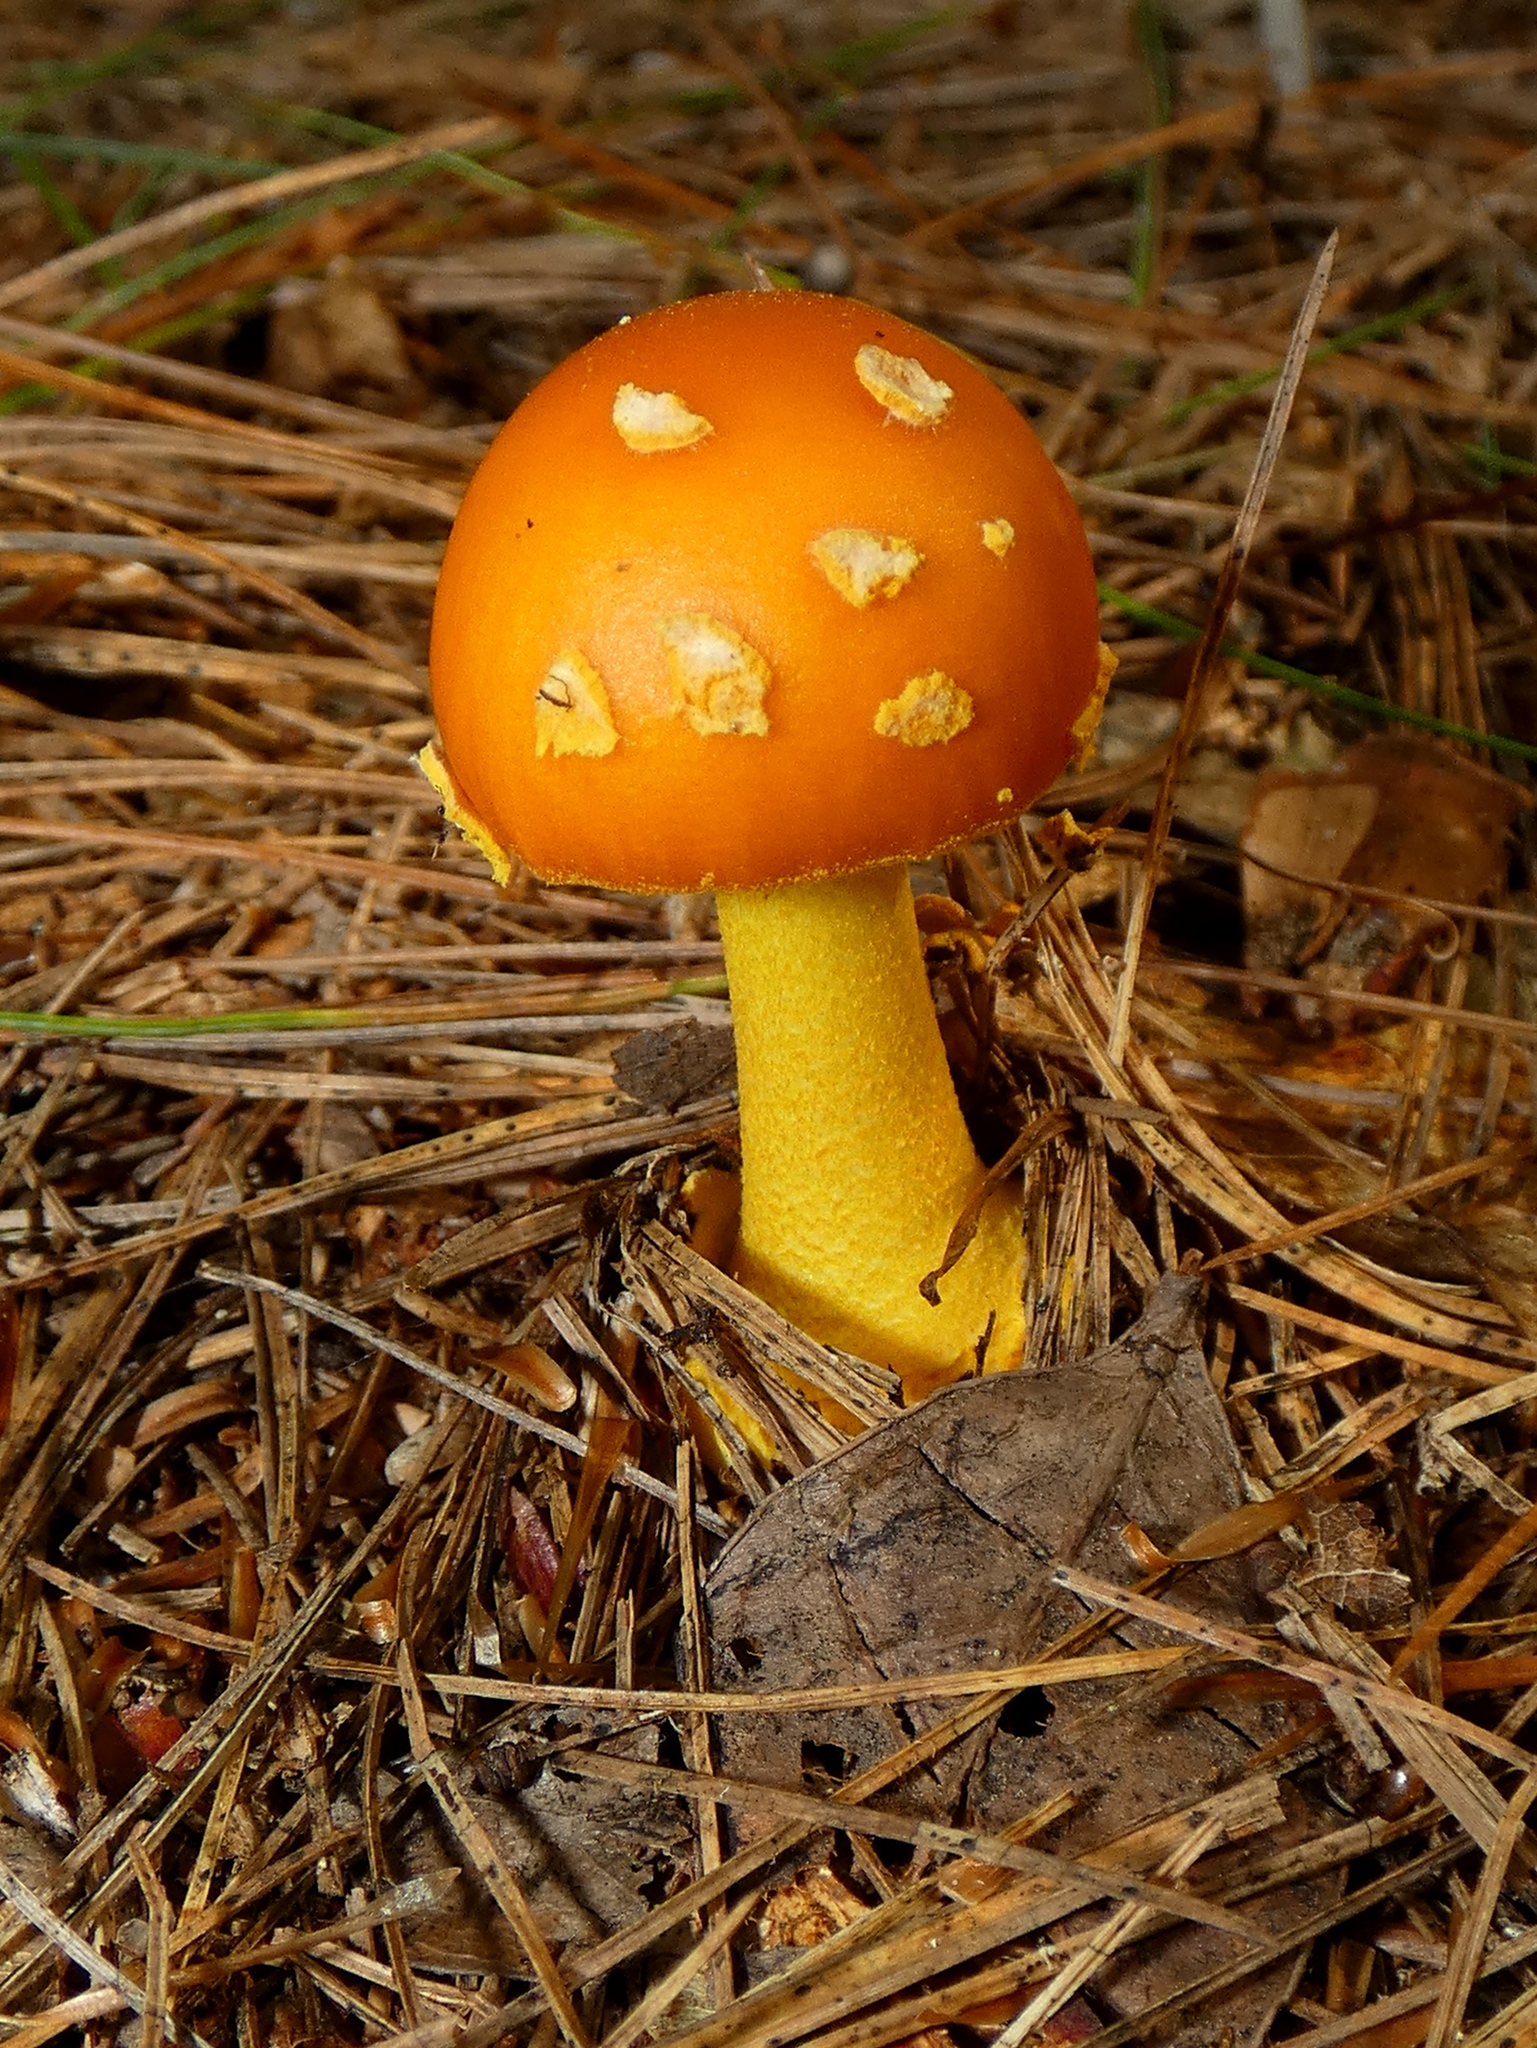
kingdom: Fungi
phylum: Basidiomycota
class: Agaricomycetes
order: Agaricales
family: Amanitaceae
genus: Amanita
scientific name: Amanita flavoconia
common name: Yellow patches
